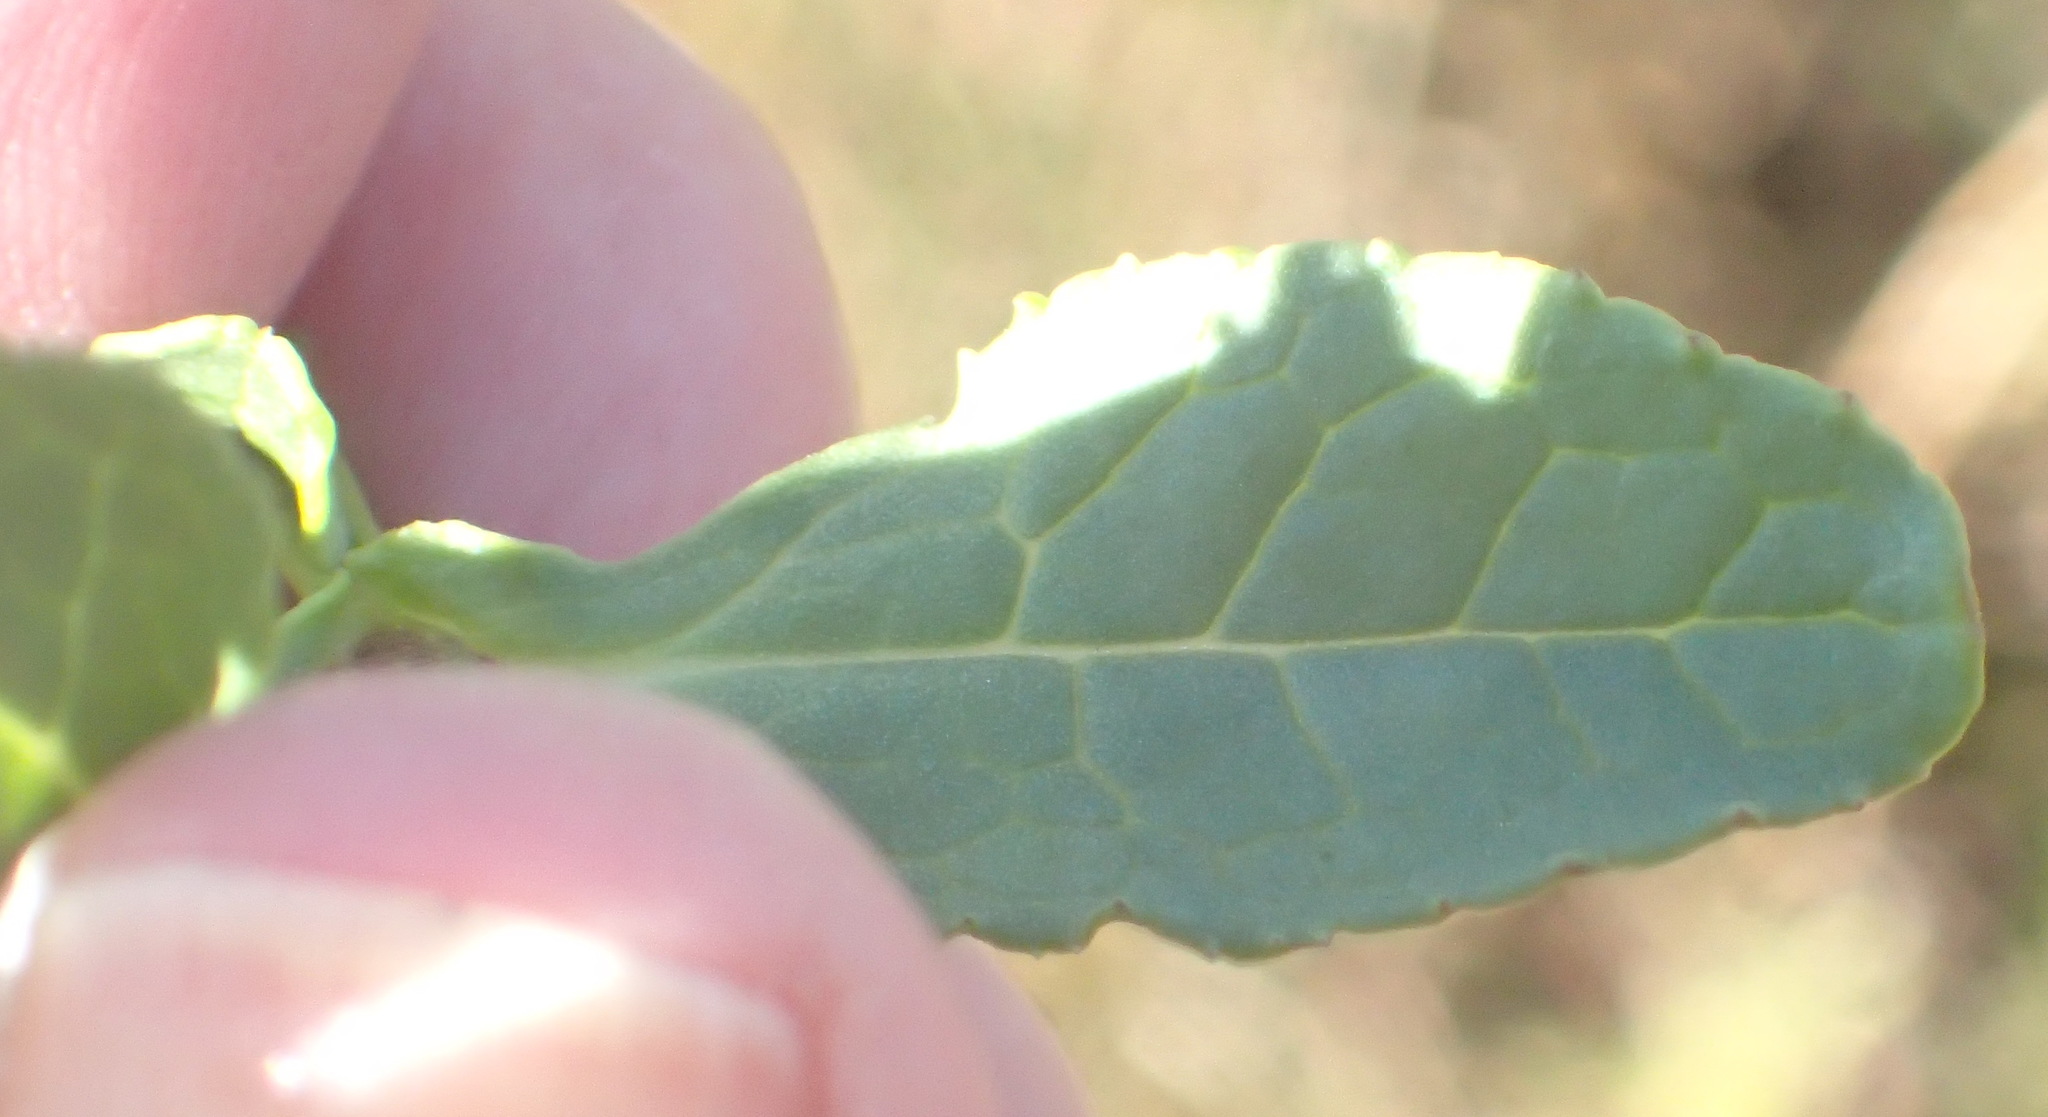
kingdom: Plantae
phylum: Tracheophyta
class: Magnoliopsida
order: Lamiales
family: Scrophulariaceae
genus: Teedia
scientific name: Teedia lucida
